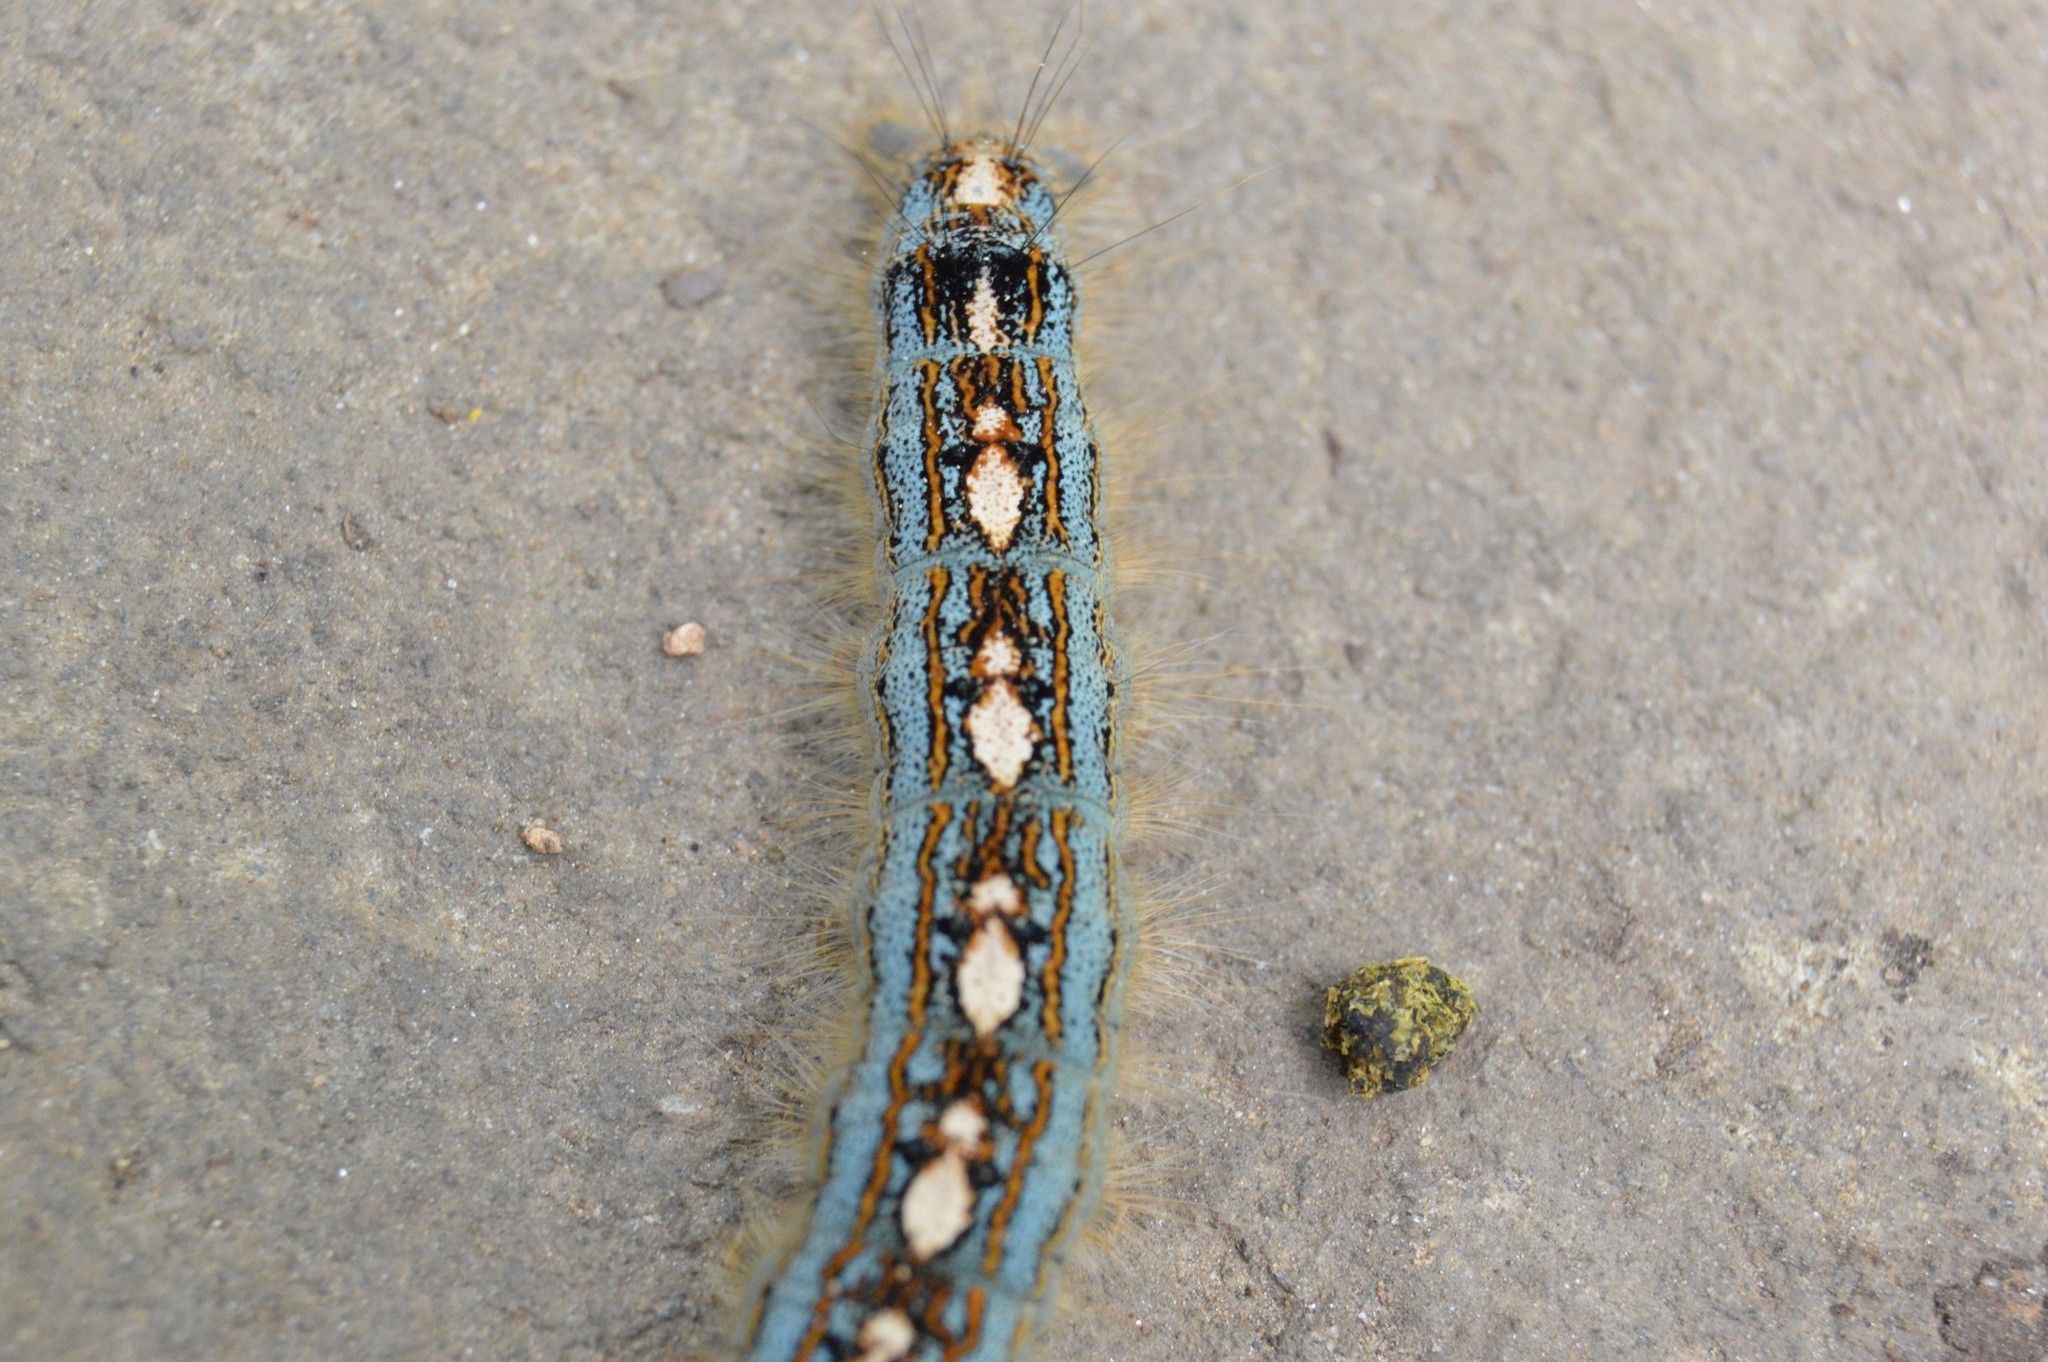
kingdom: Animalia
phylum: Arthropoda
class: Insecta
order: Lepidoptera
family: Lasiocampidae
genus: Malacosoma
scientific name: Malacosoma disstria
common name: Forest tent caterpillar
